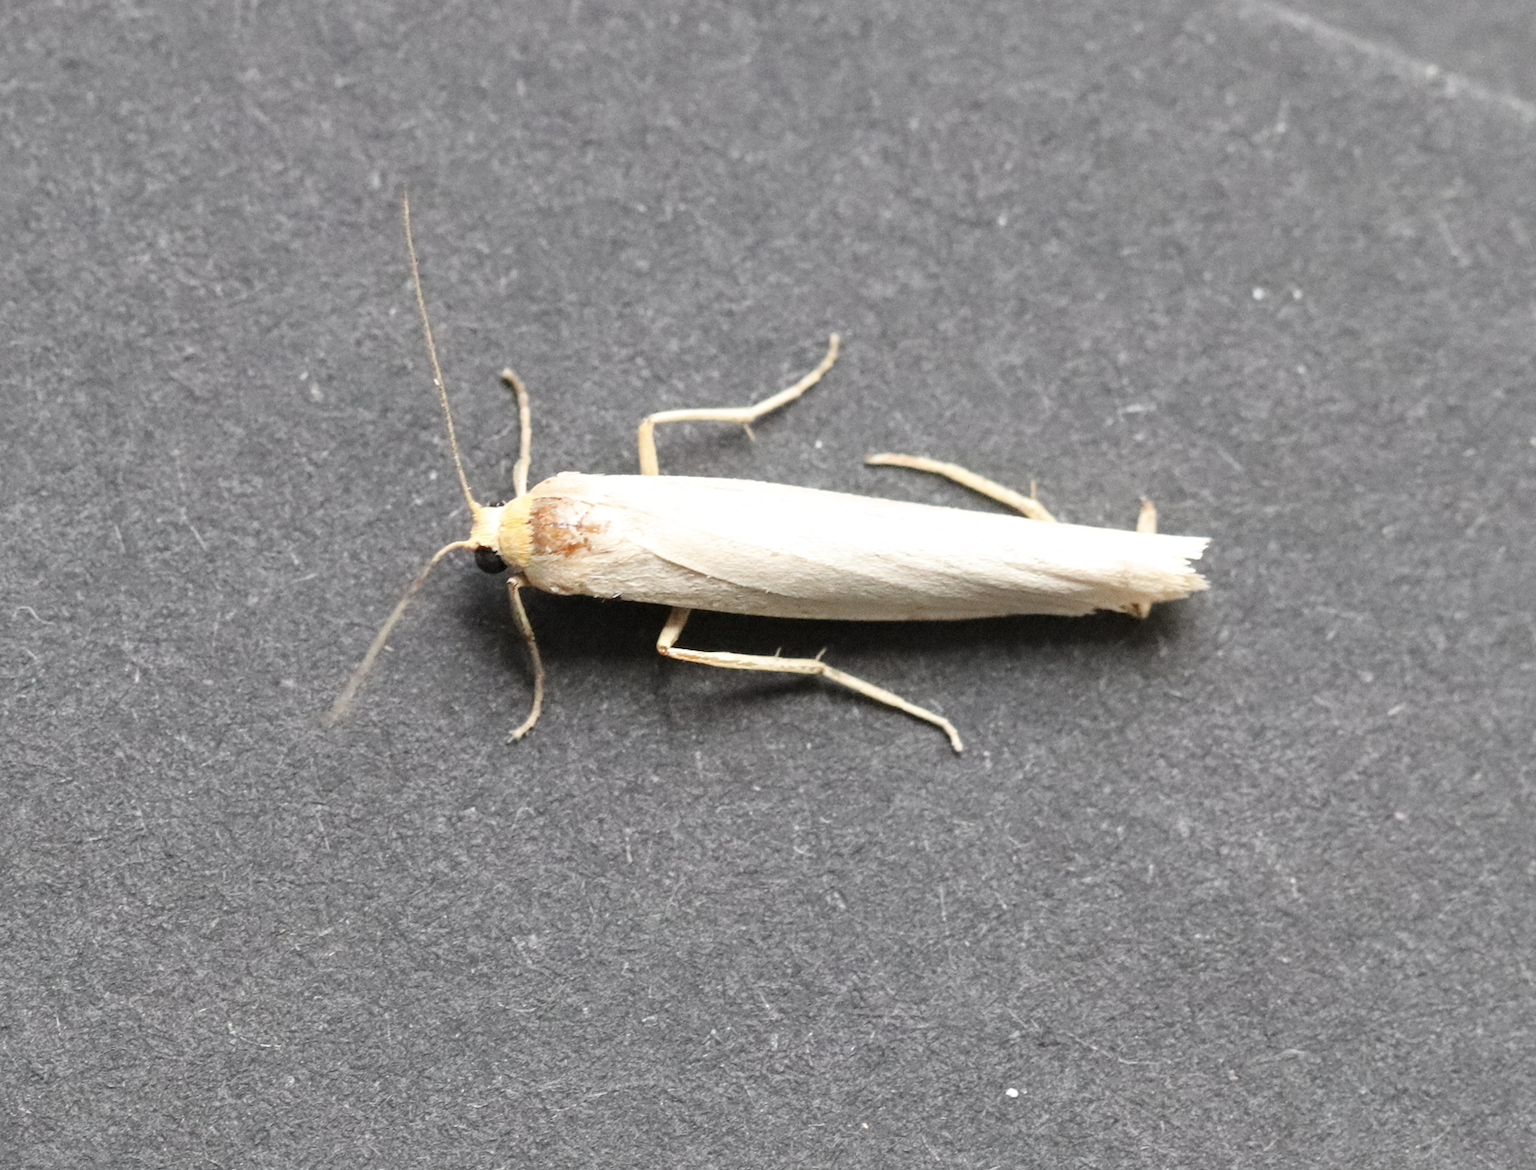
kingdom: Animalia
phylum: Arthropoda
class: Insecta
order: Lepidoptera
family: Erebidae
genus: Eilema
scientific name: Eilema caniola
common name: Hoary footman
